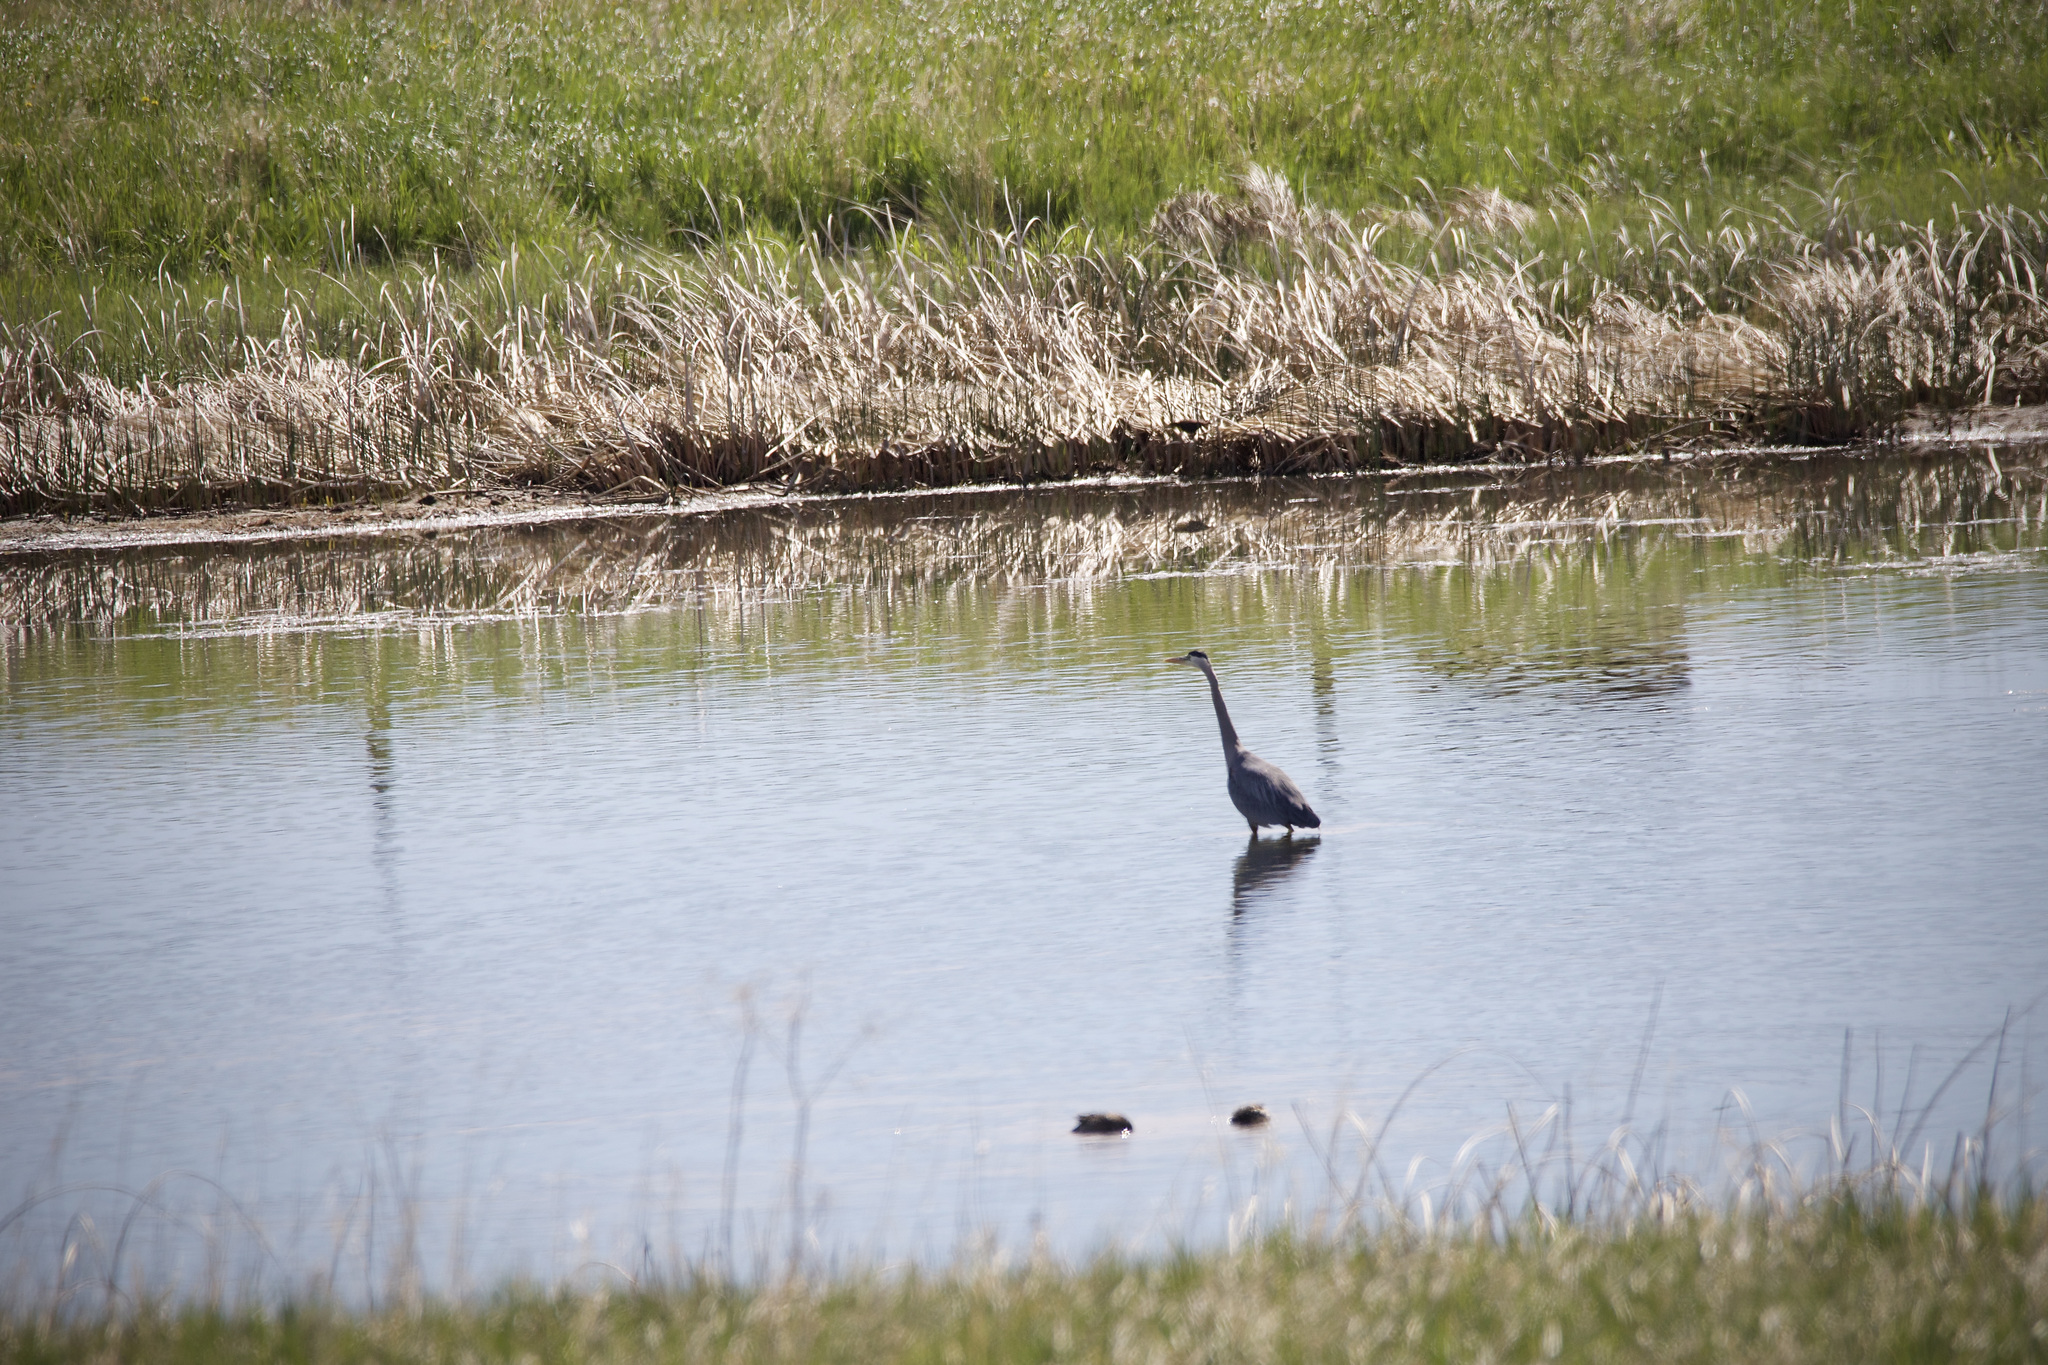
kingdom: Animalia
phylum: Chordata
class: Aves
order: Pelecaniformes
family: Ardeidae
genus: Ardea
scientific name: Ardea herodias
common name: Great blue heron
